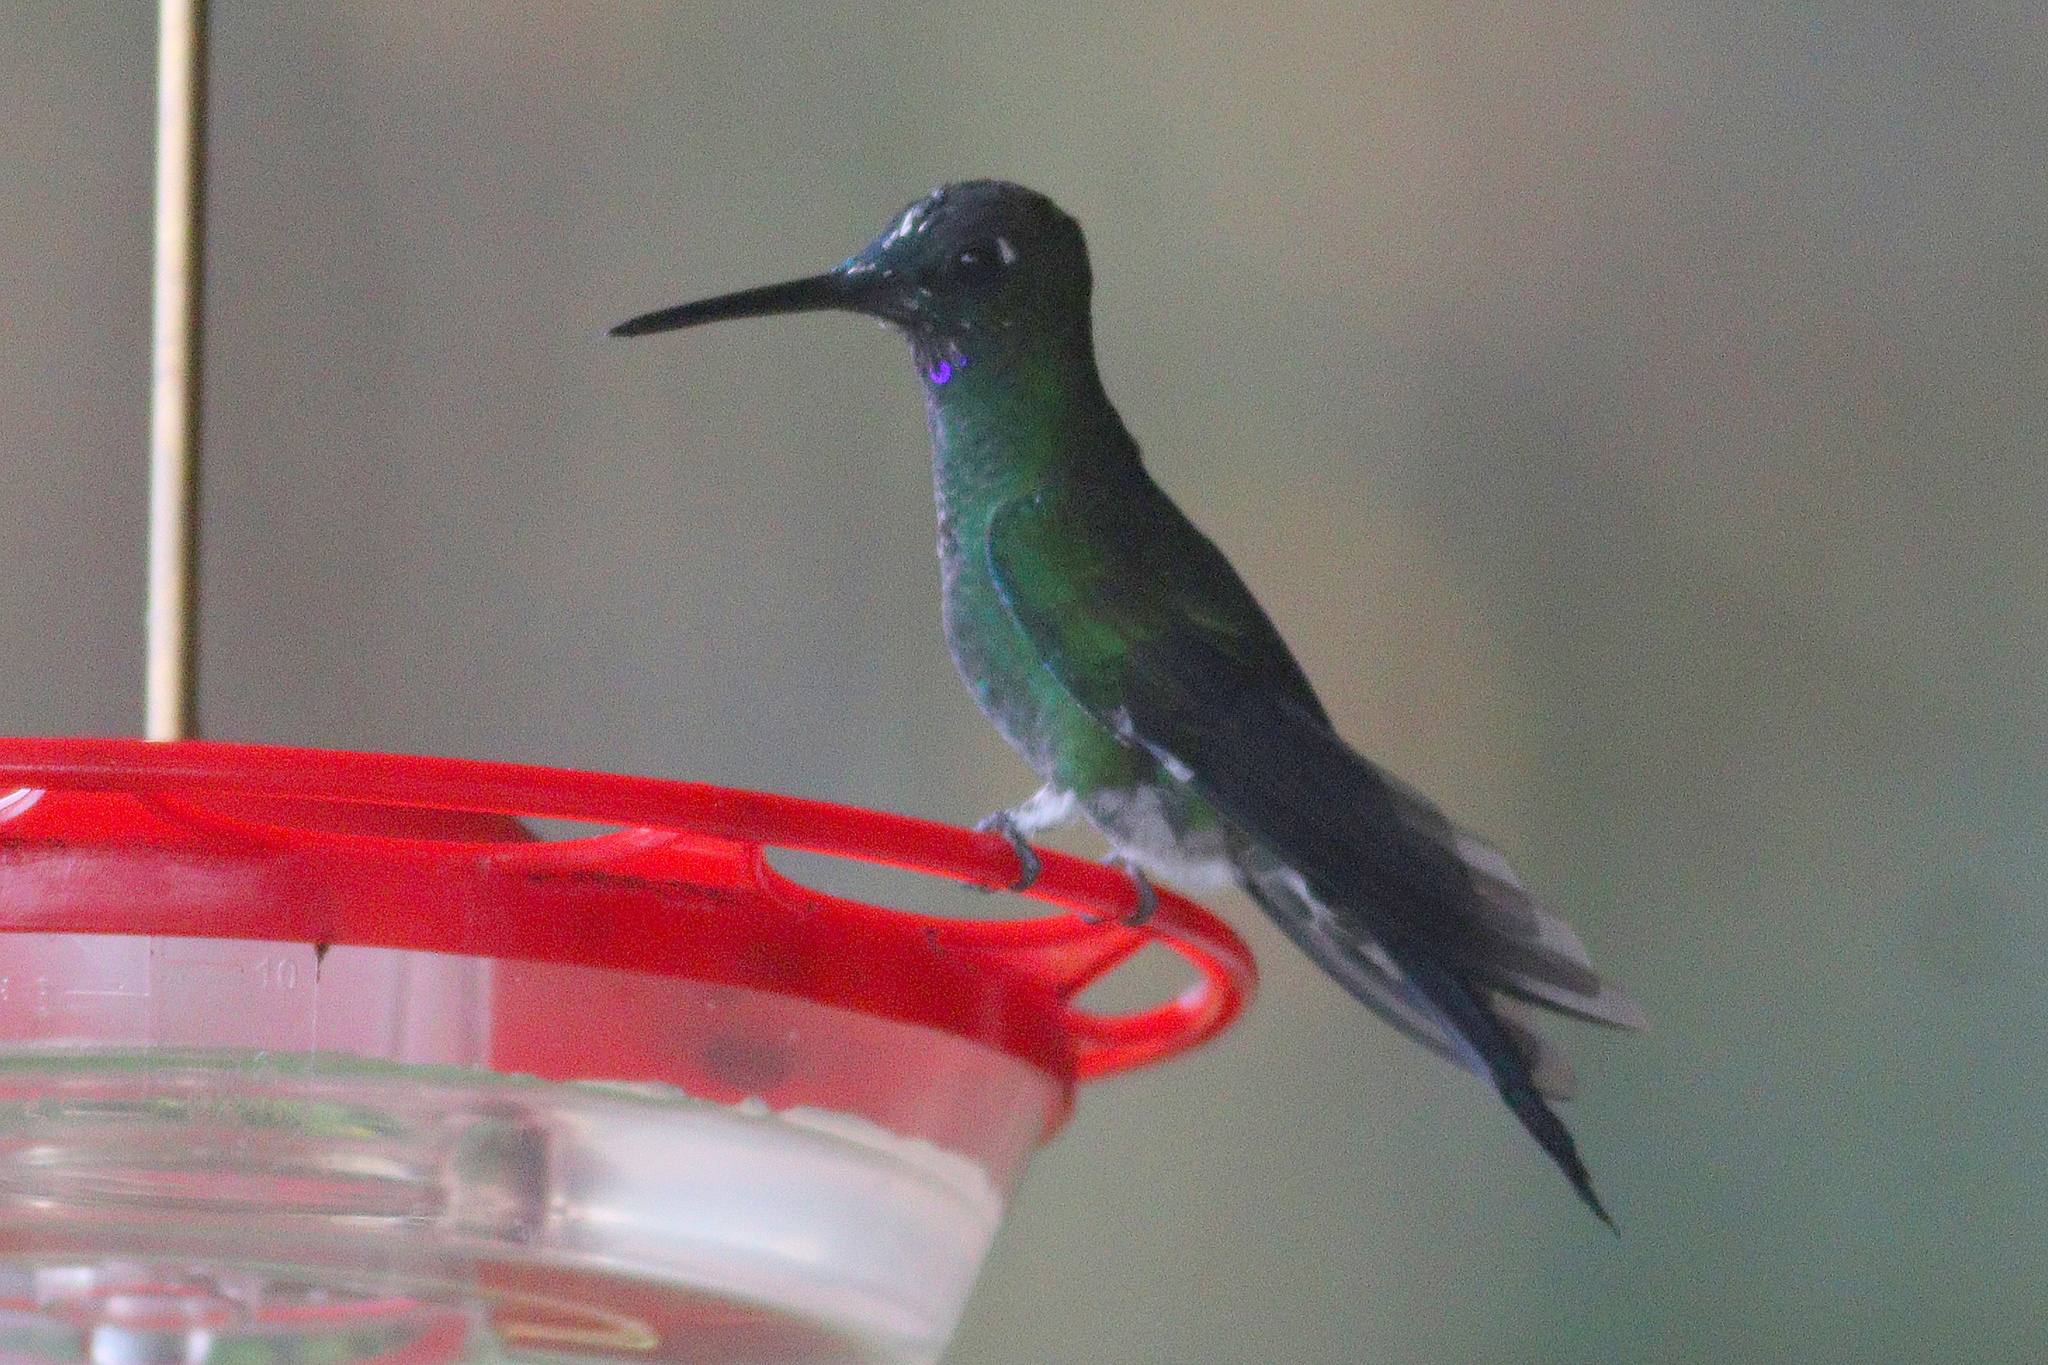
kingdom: Animalia
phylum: Chordata
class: Aves
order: Apodiformes
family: Trochilidae
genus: Heliodoxa
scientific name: Heliodoxa jacula
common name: Green-crowned brilliant
